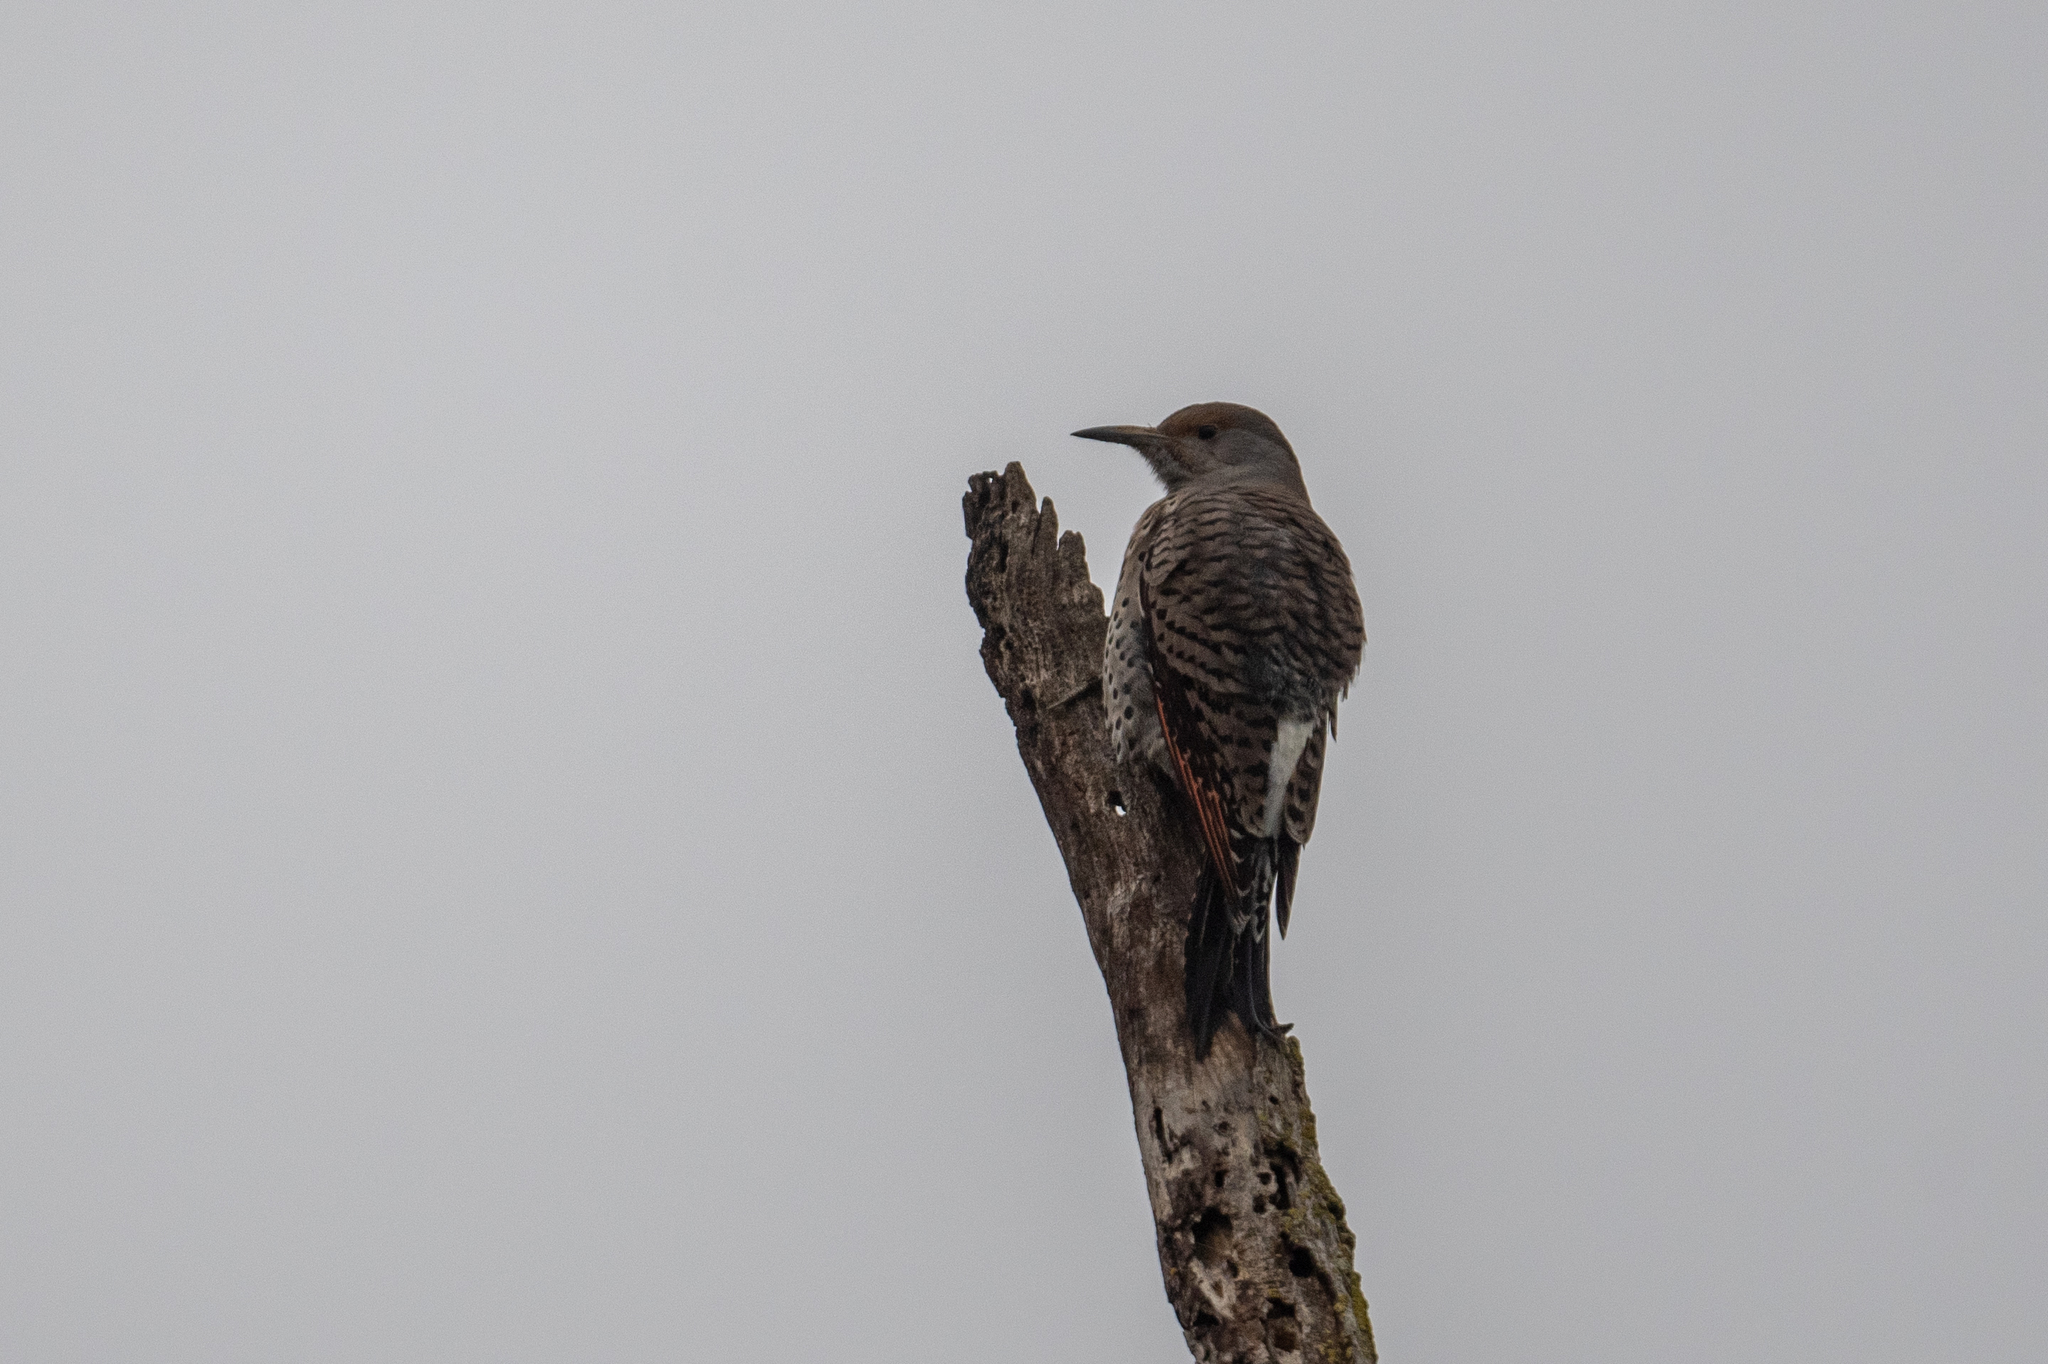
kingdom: Animalia
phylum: Chordata
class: Aves
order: Piciformes
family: Picidae
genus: Colaptes
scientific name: Colaptes auratus
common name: Northern flicker
